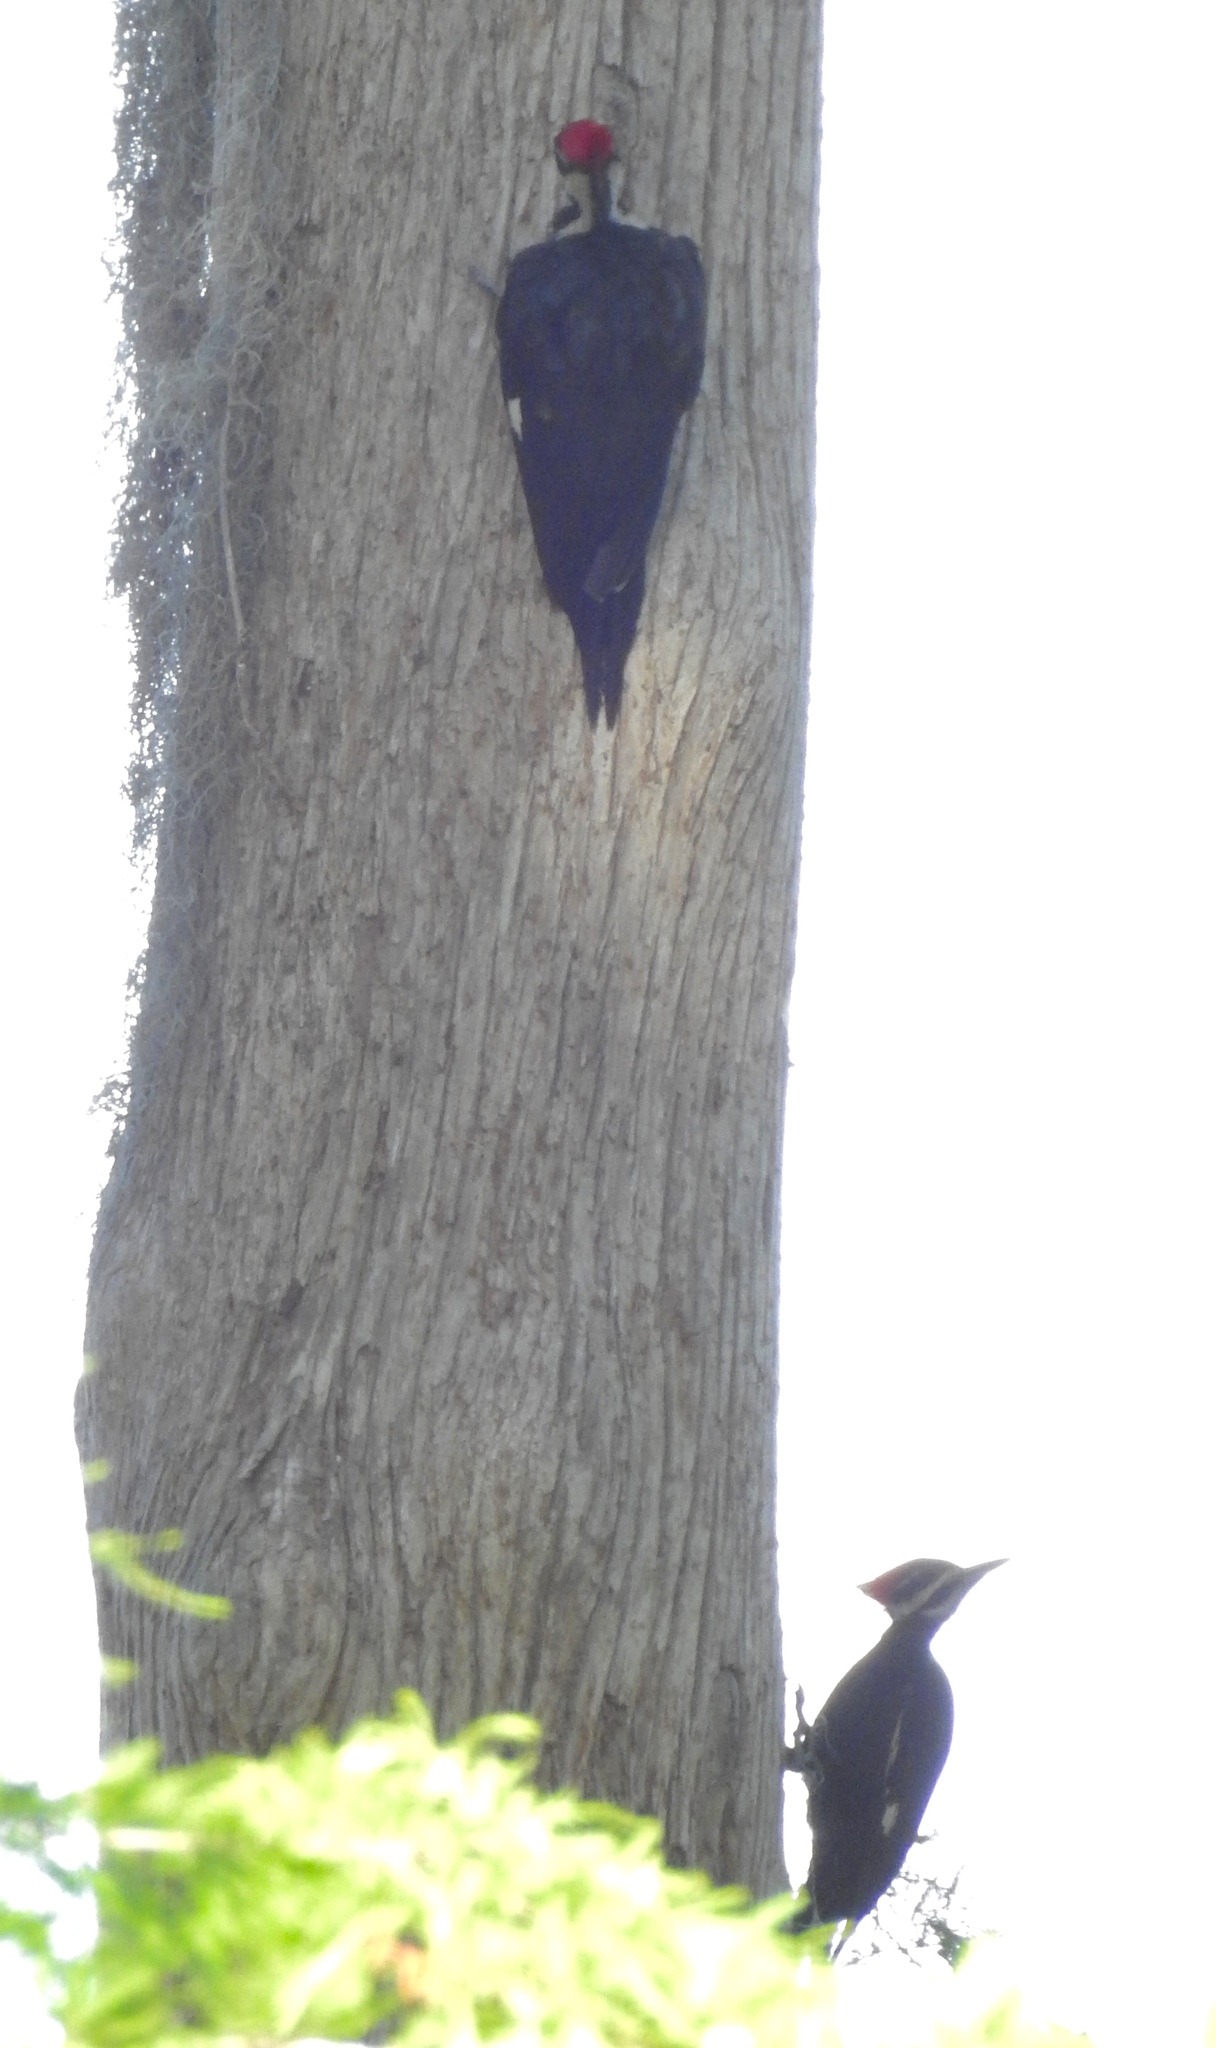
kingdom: Animalia
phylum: Chordata
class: Aves
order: Piciformes
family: Picidae
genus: Dryocopus
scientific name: Dryocopus pileatus
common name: Pileated woodpecker
